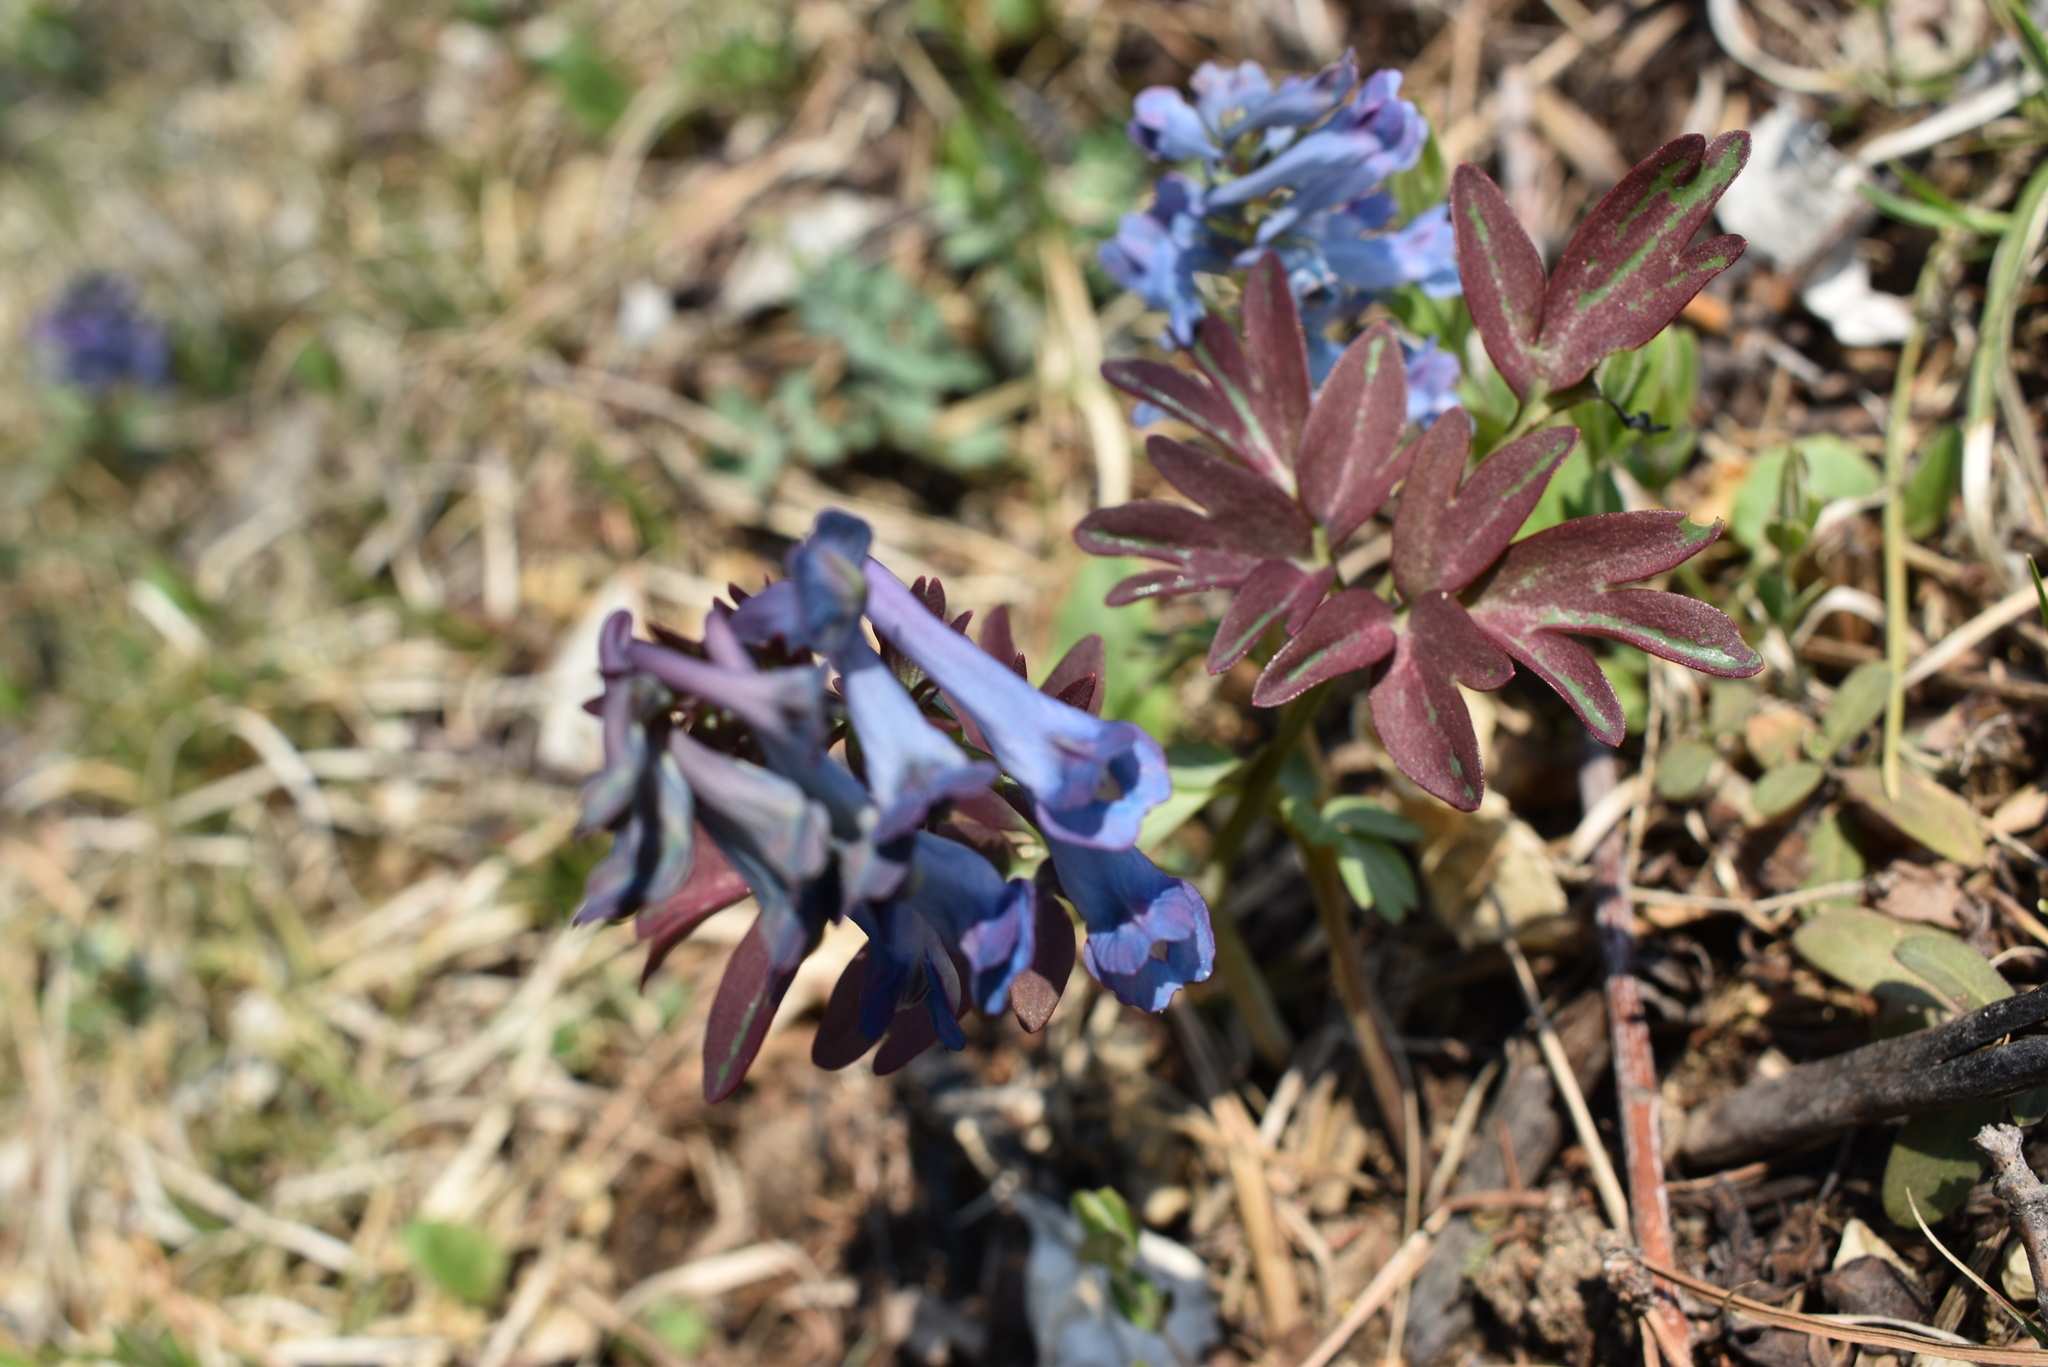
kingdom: Plantae
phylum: Tracheophyta
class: Magnoliopsida
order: Ranunculales
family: Papaveraceae
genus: Corydalis
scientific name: Corydalis turtschaninovii
